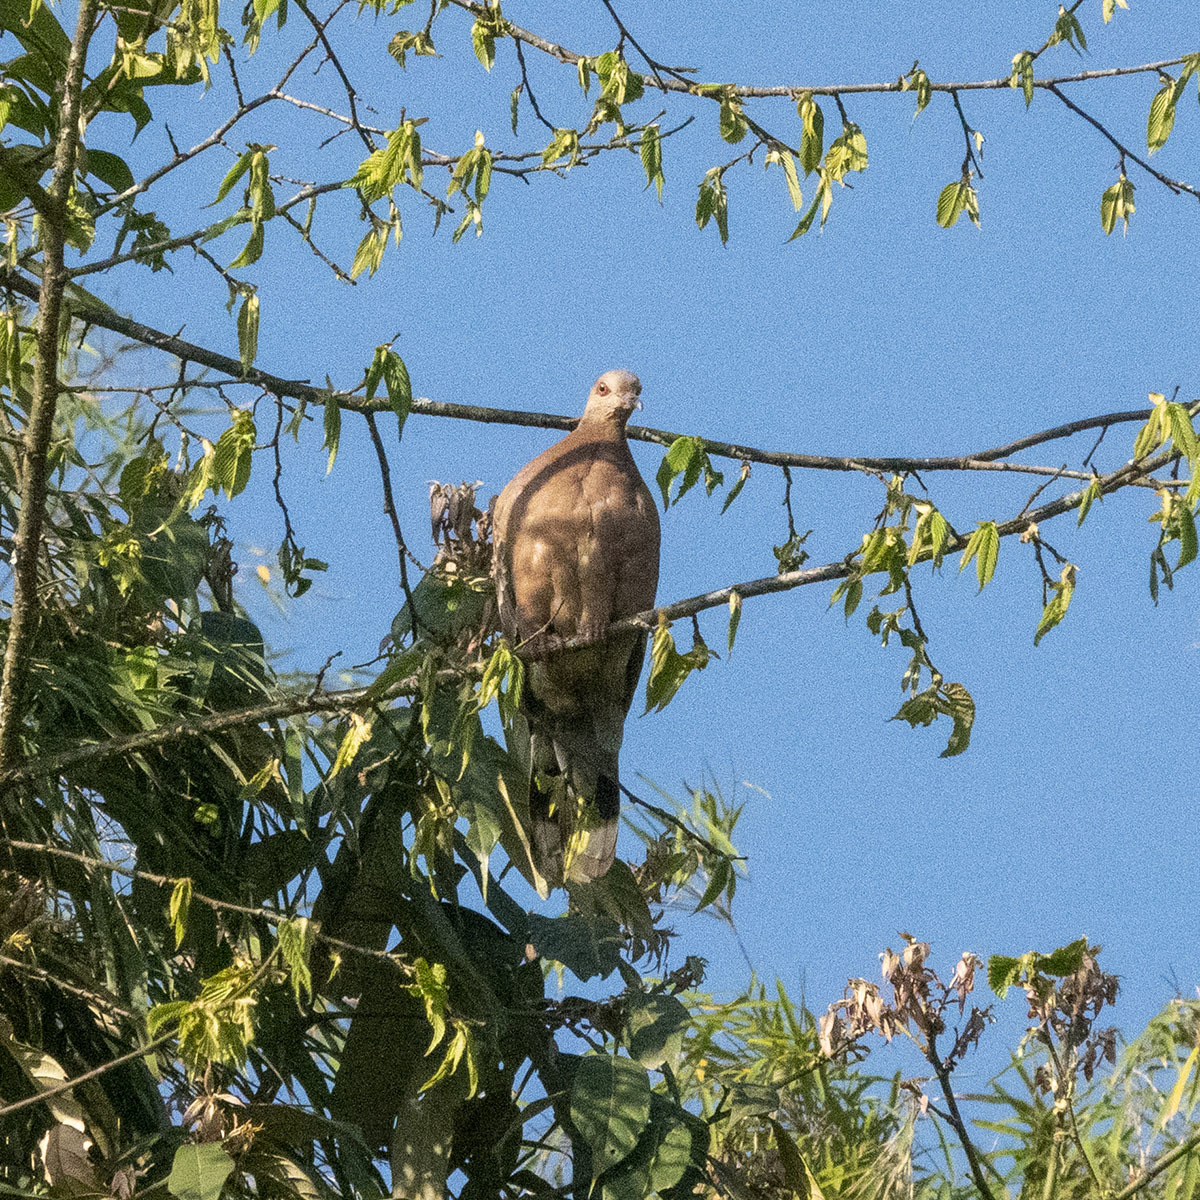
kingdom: Animalia
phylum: Chordata
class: Aves
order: Columbiformes
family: Columbidae
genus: Streptopelia
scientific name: Streptopelia orientalis
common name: Oriental turtle dove
